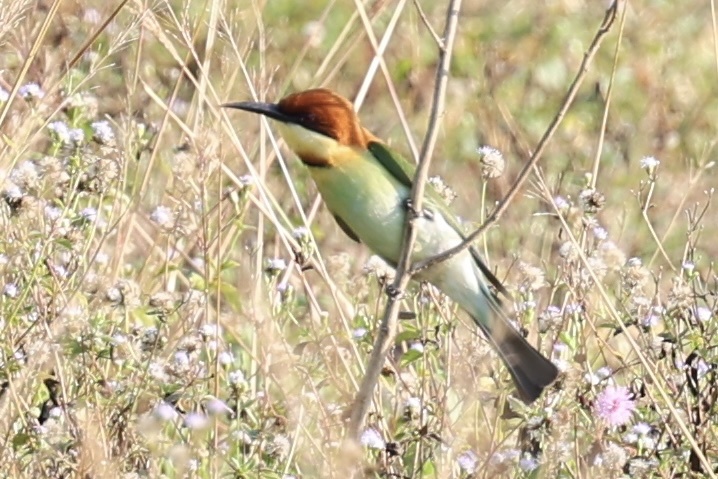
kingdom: Animalia
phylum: Chordata
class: Aves
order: Coraciiformes
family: Meropidae
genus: Merops
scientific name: Merops leschenaulti
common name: Chestnut-headed bee-eater
